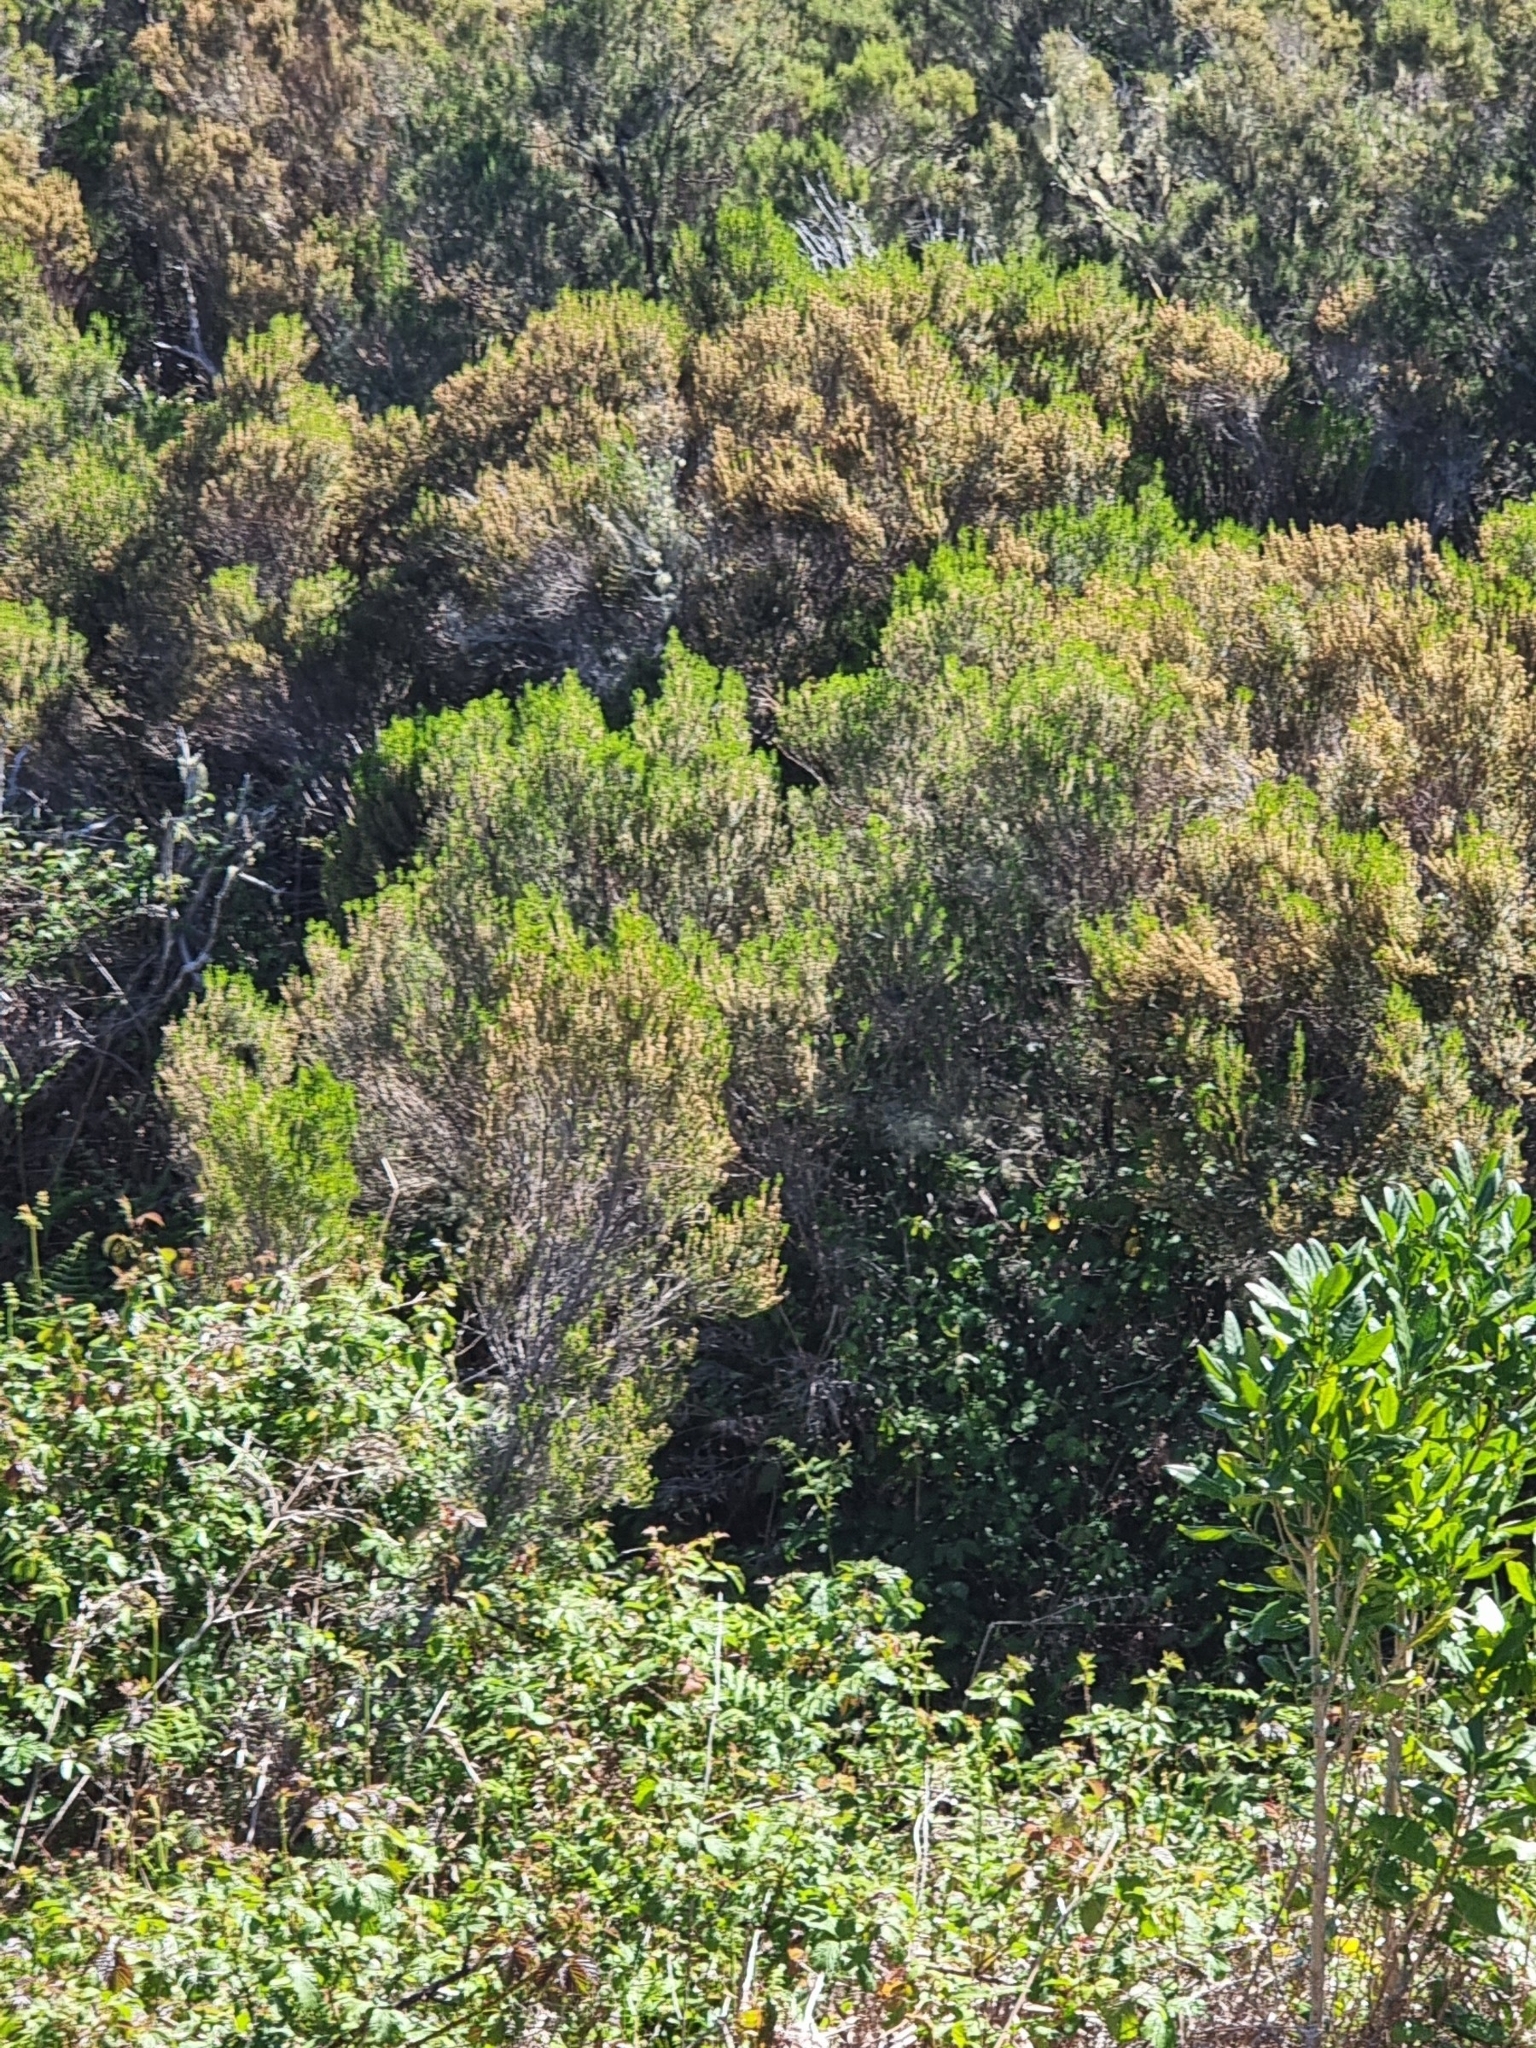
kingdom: Plantae
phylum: Tracheophyta
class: Magnoliopsida
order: Ericales
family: Ericaceae
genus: Erica
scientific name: Erica platycodon
